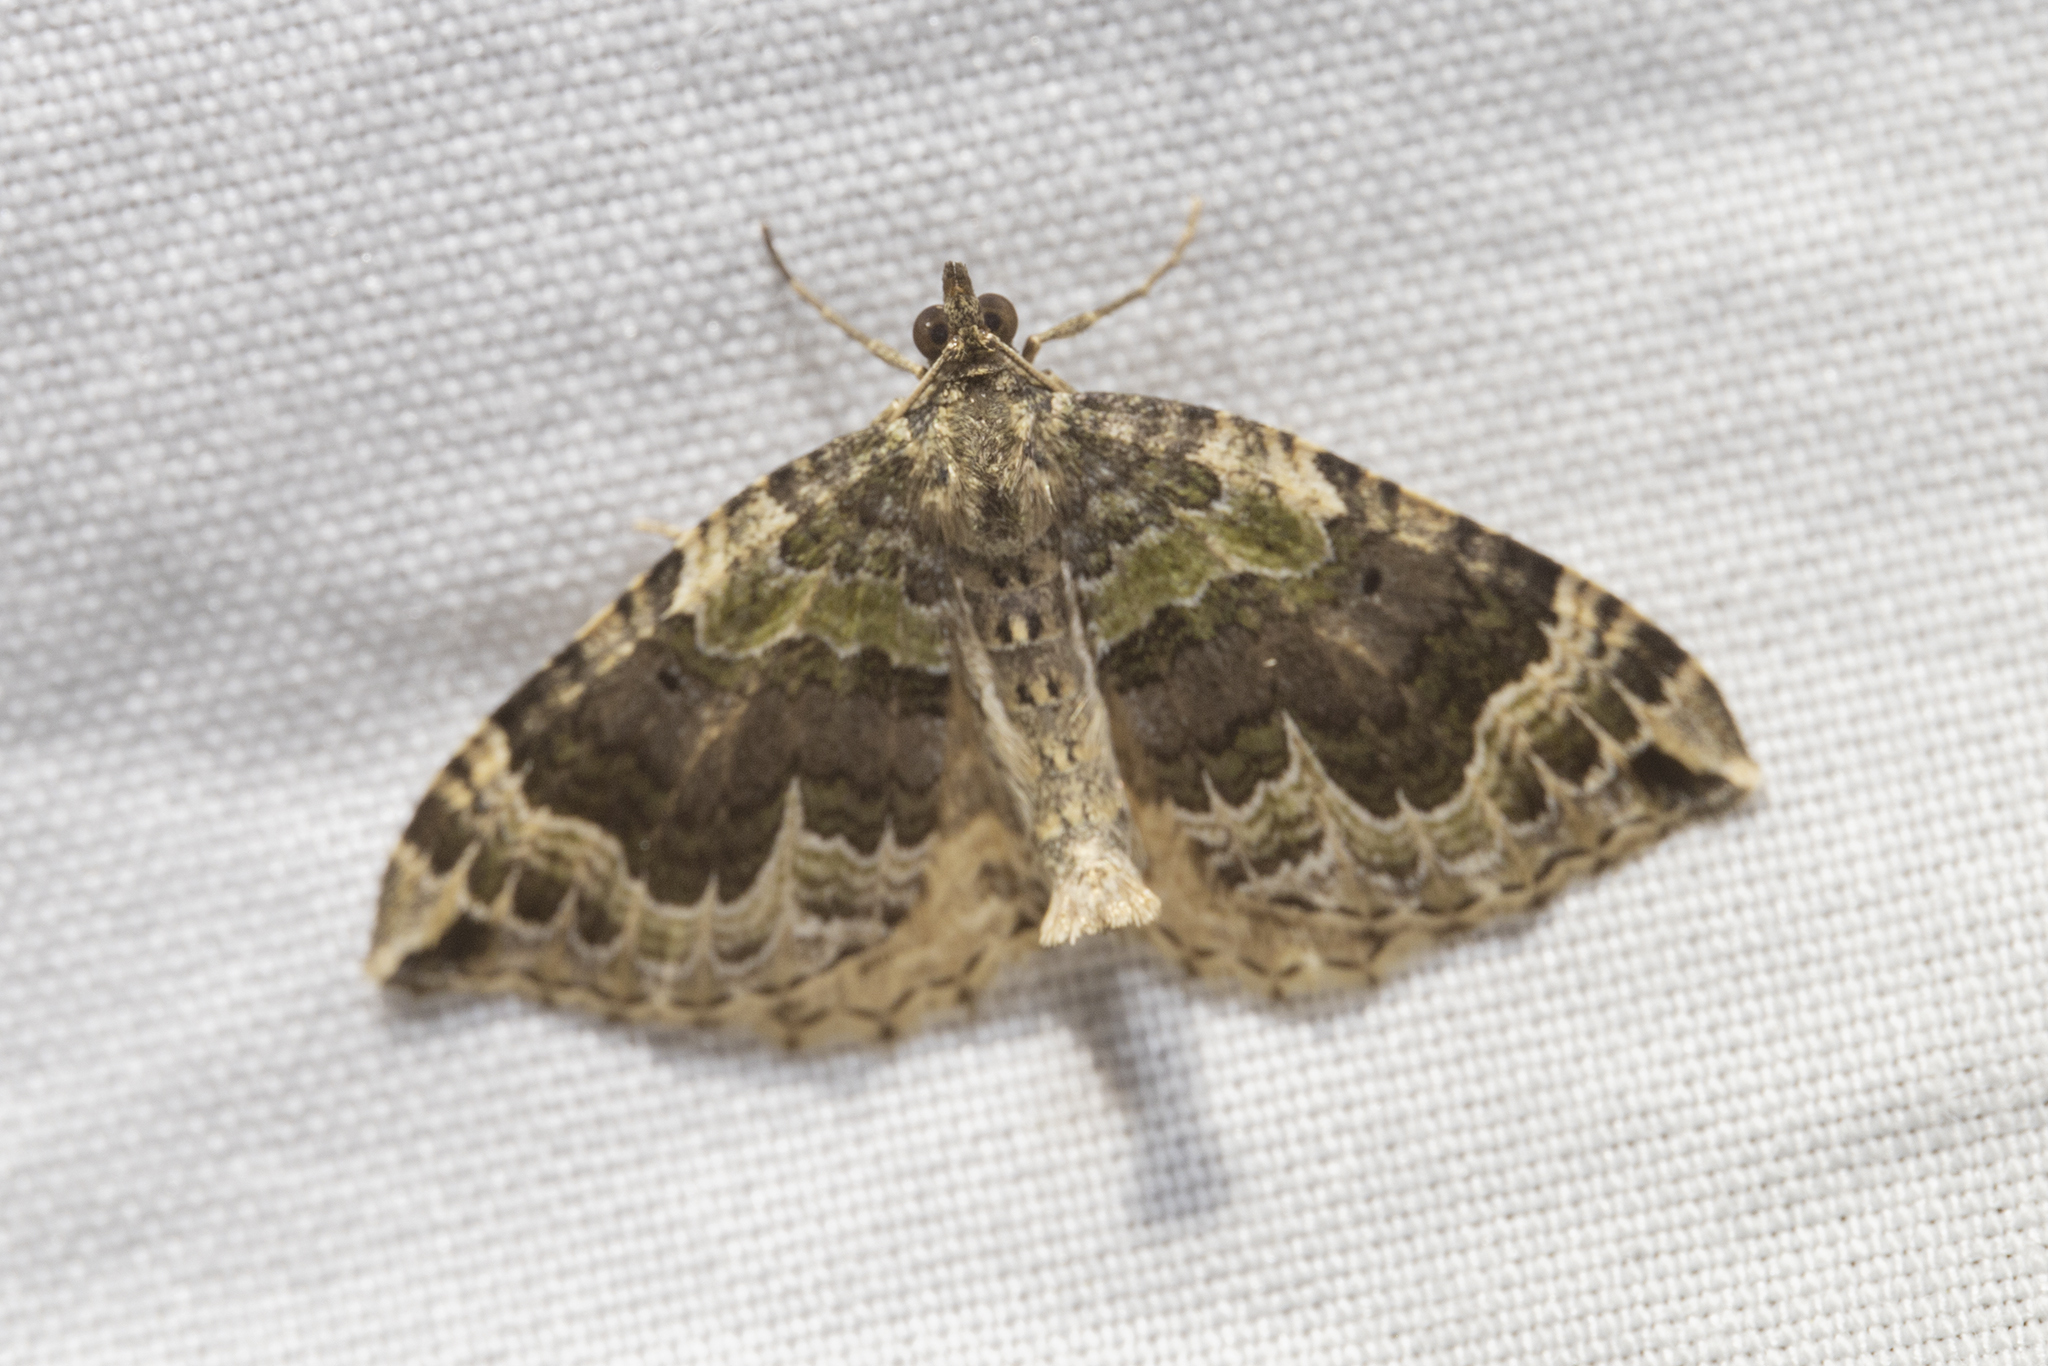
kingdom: Animalia
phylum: Arthropoda
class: Insecta
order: Lepidoptera
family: Geometridae
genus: Hydriomena
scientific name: Hydriomena rixata
